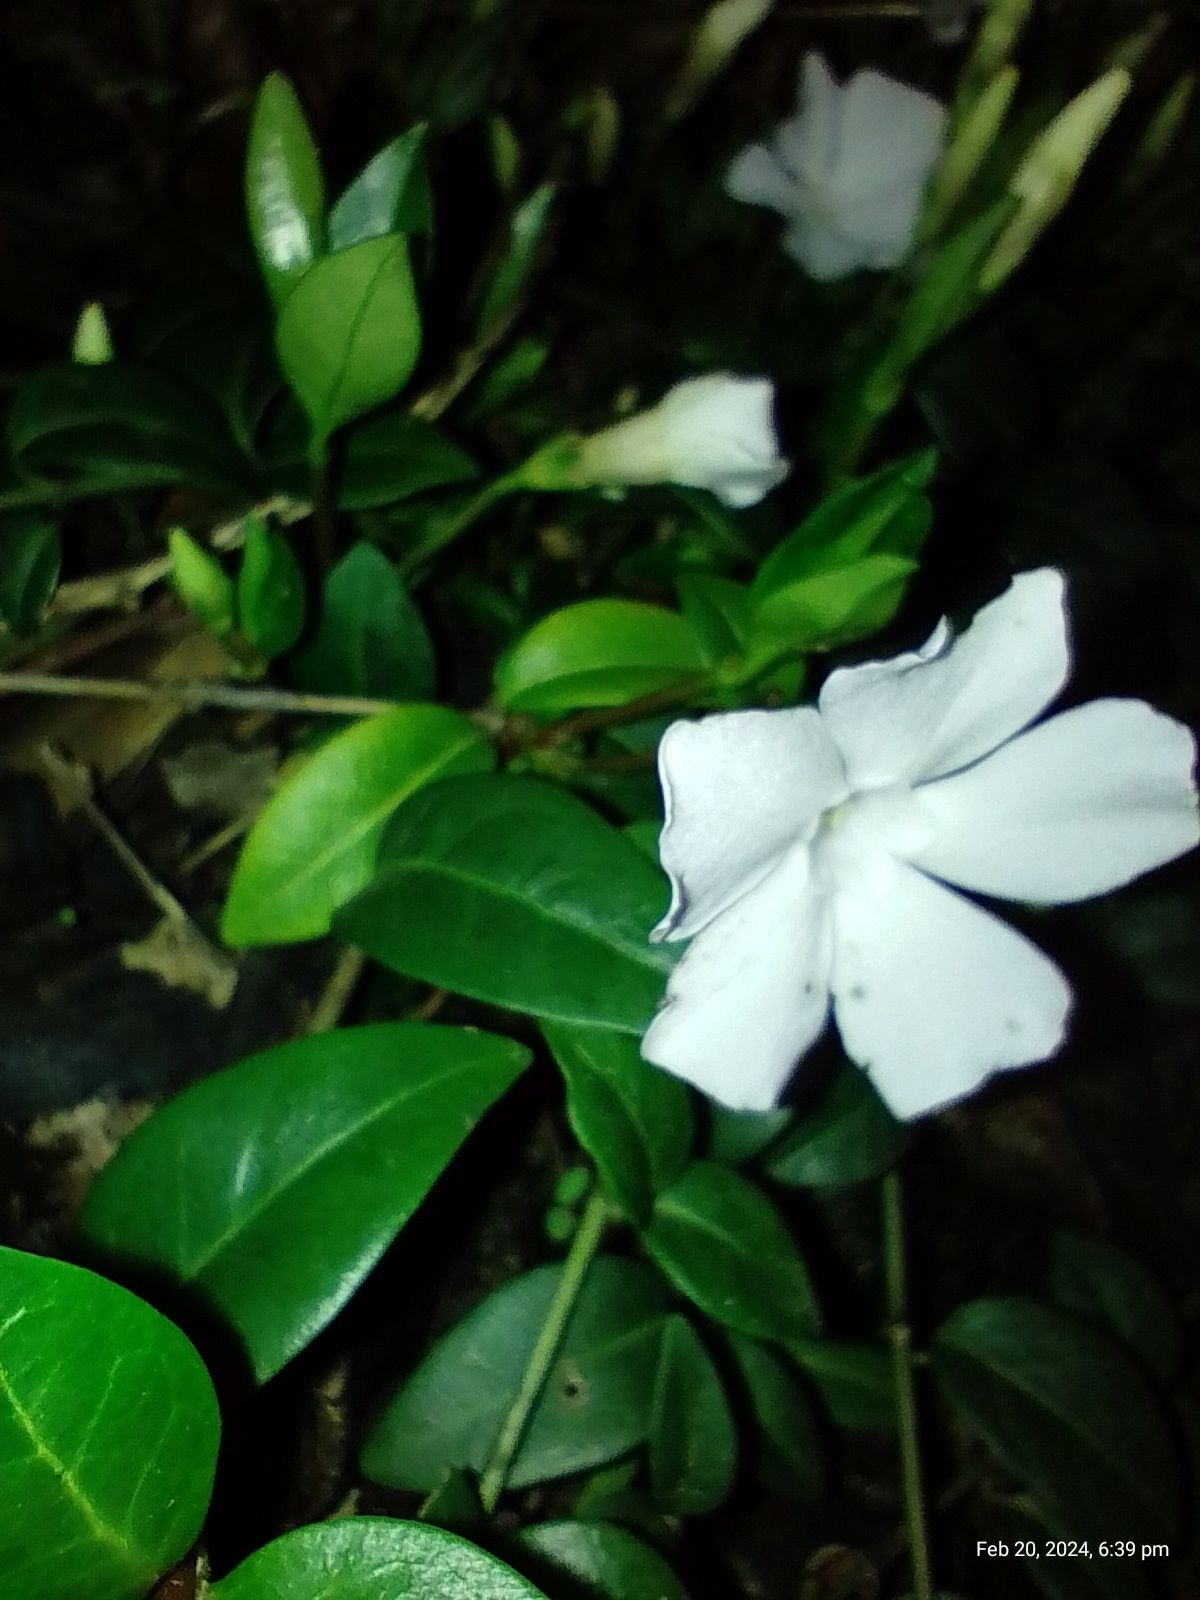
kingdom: Plantae
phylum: Tracheophyta
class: Magnoliopsida
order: Gentianales
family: Apocynaceae
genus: Vinca
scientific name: Vinca minor
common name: Lesser periwinkle
